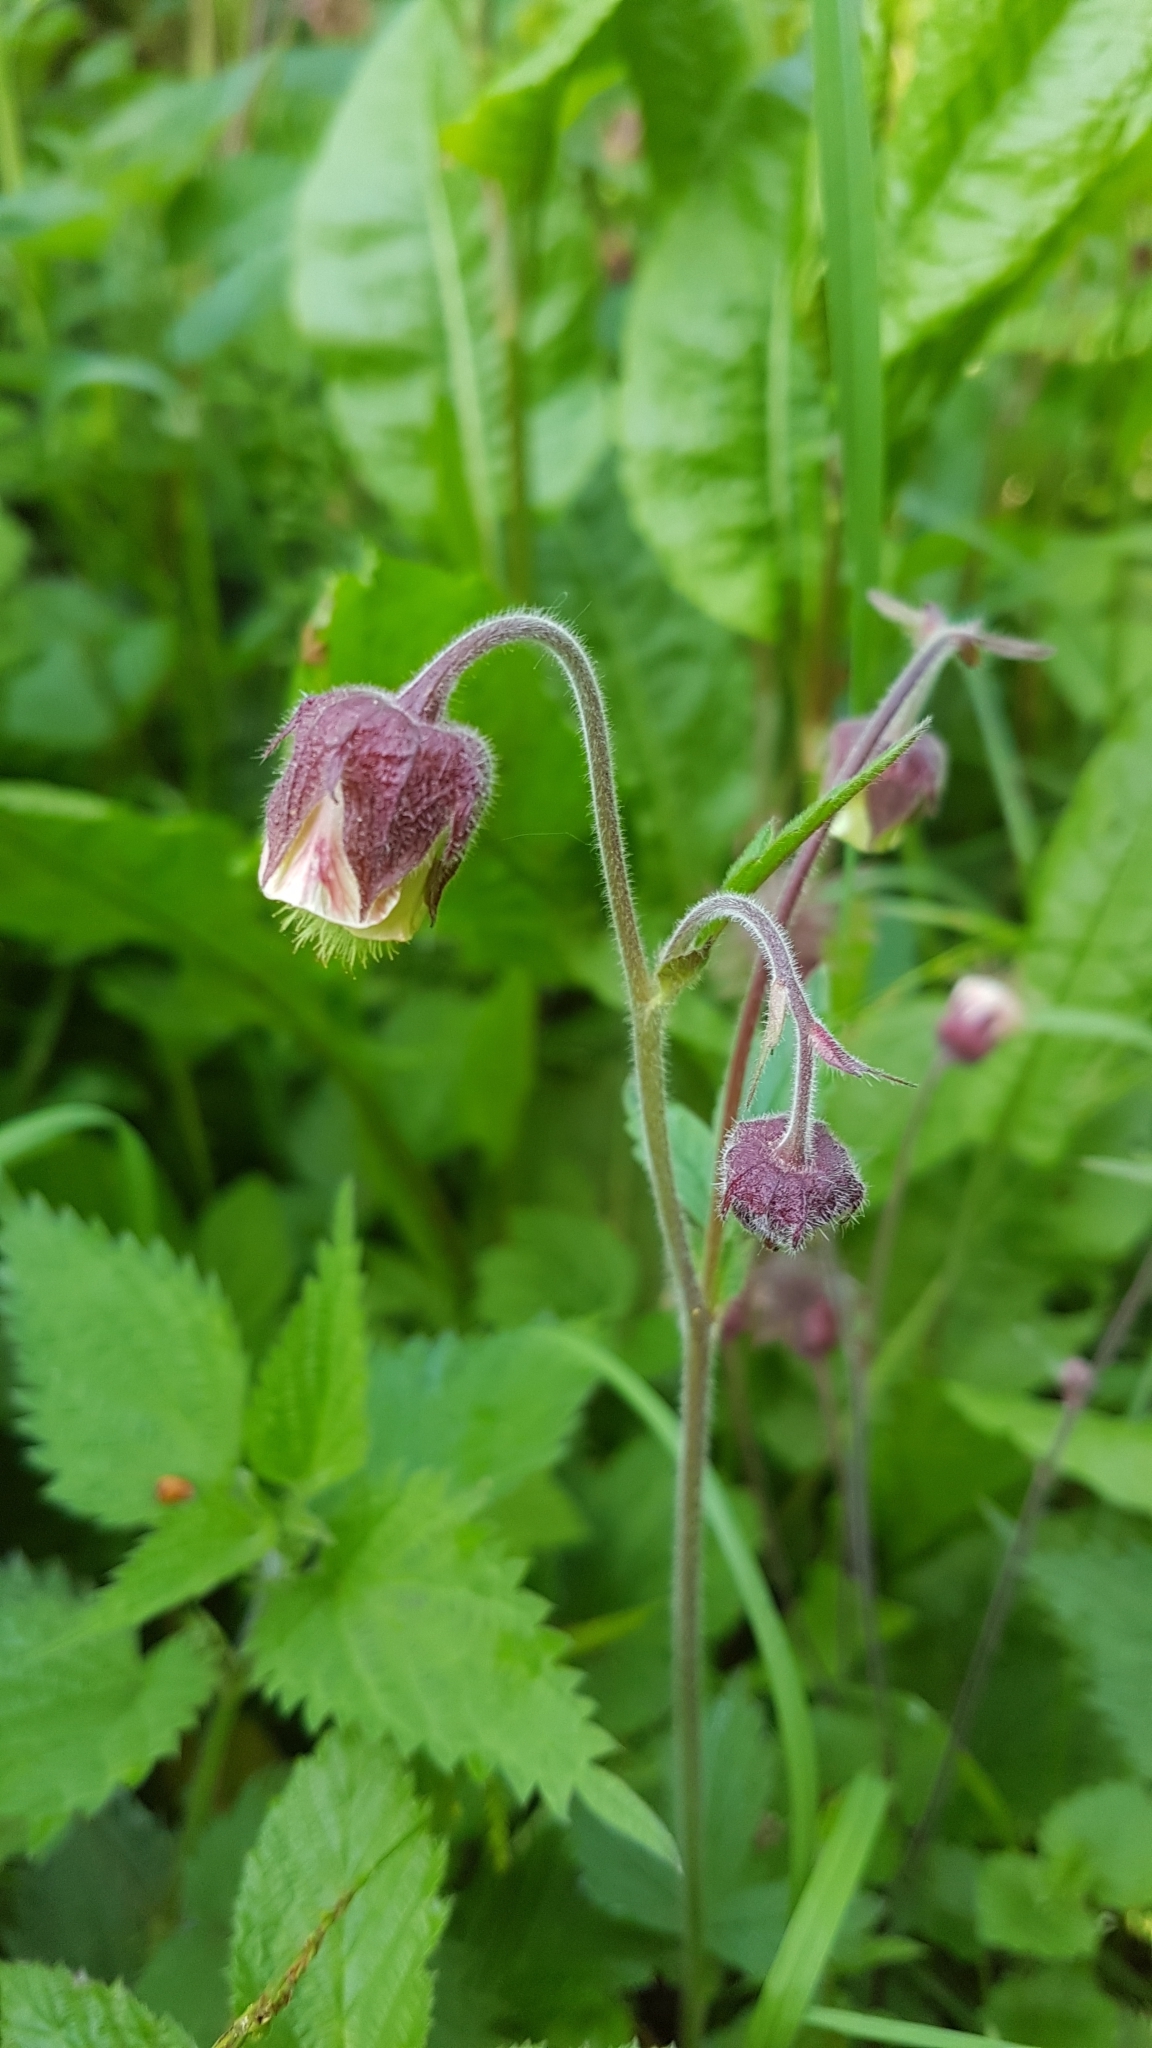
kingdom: Plantae
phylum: Tracheophyta
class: Magnoliopsida
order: Rosales
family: Rosaceae
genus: Geum
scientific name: Geum rivale
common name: Water avens
